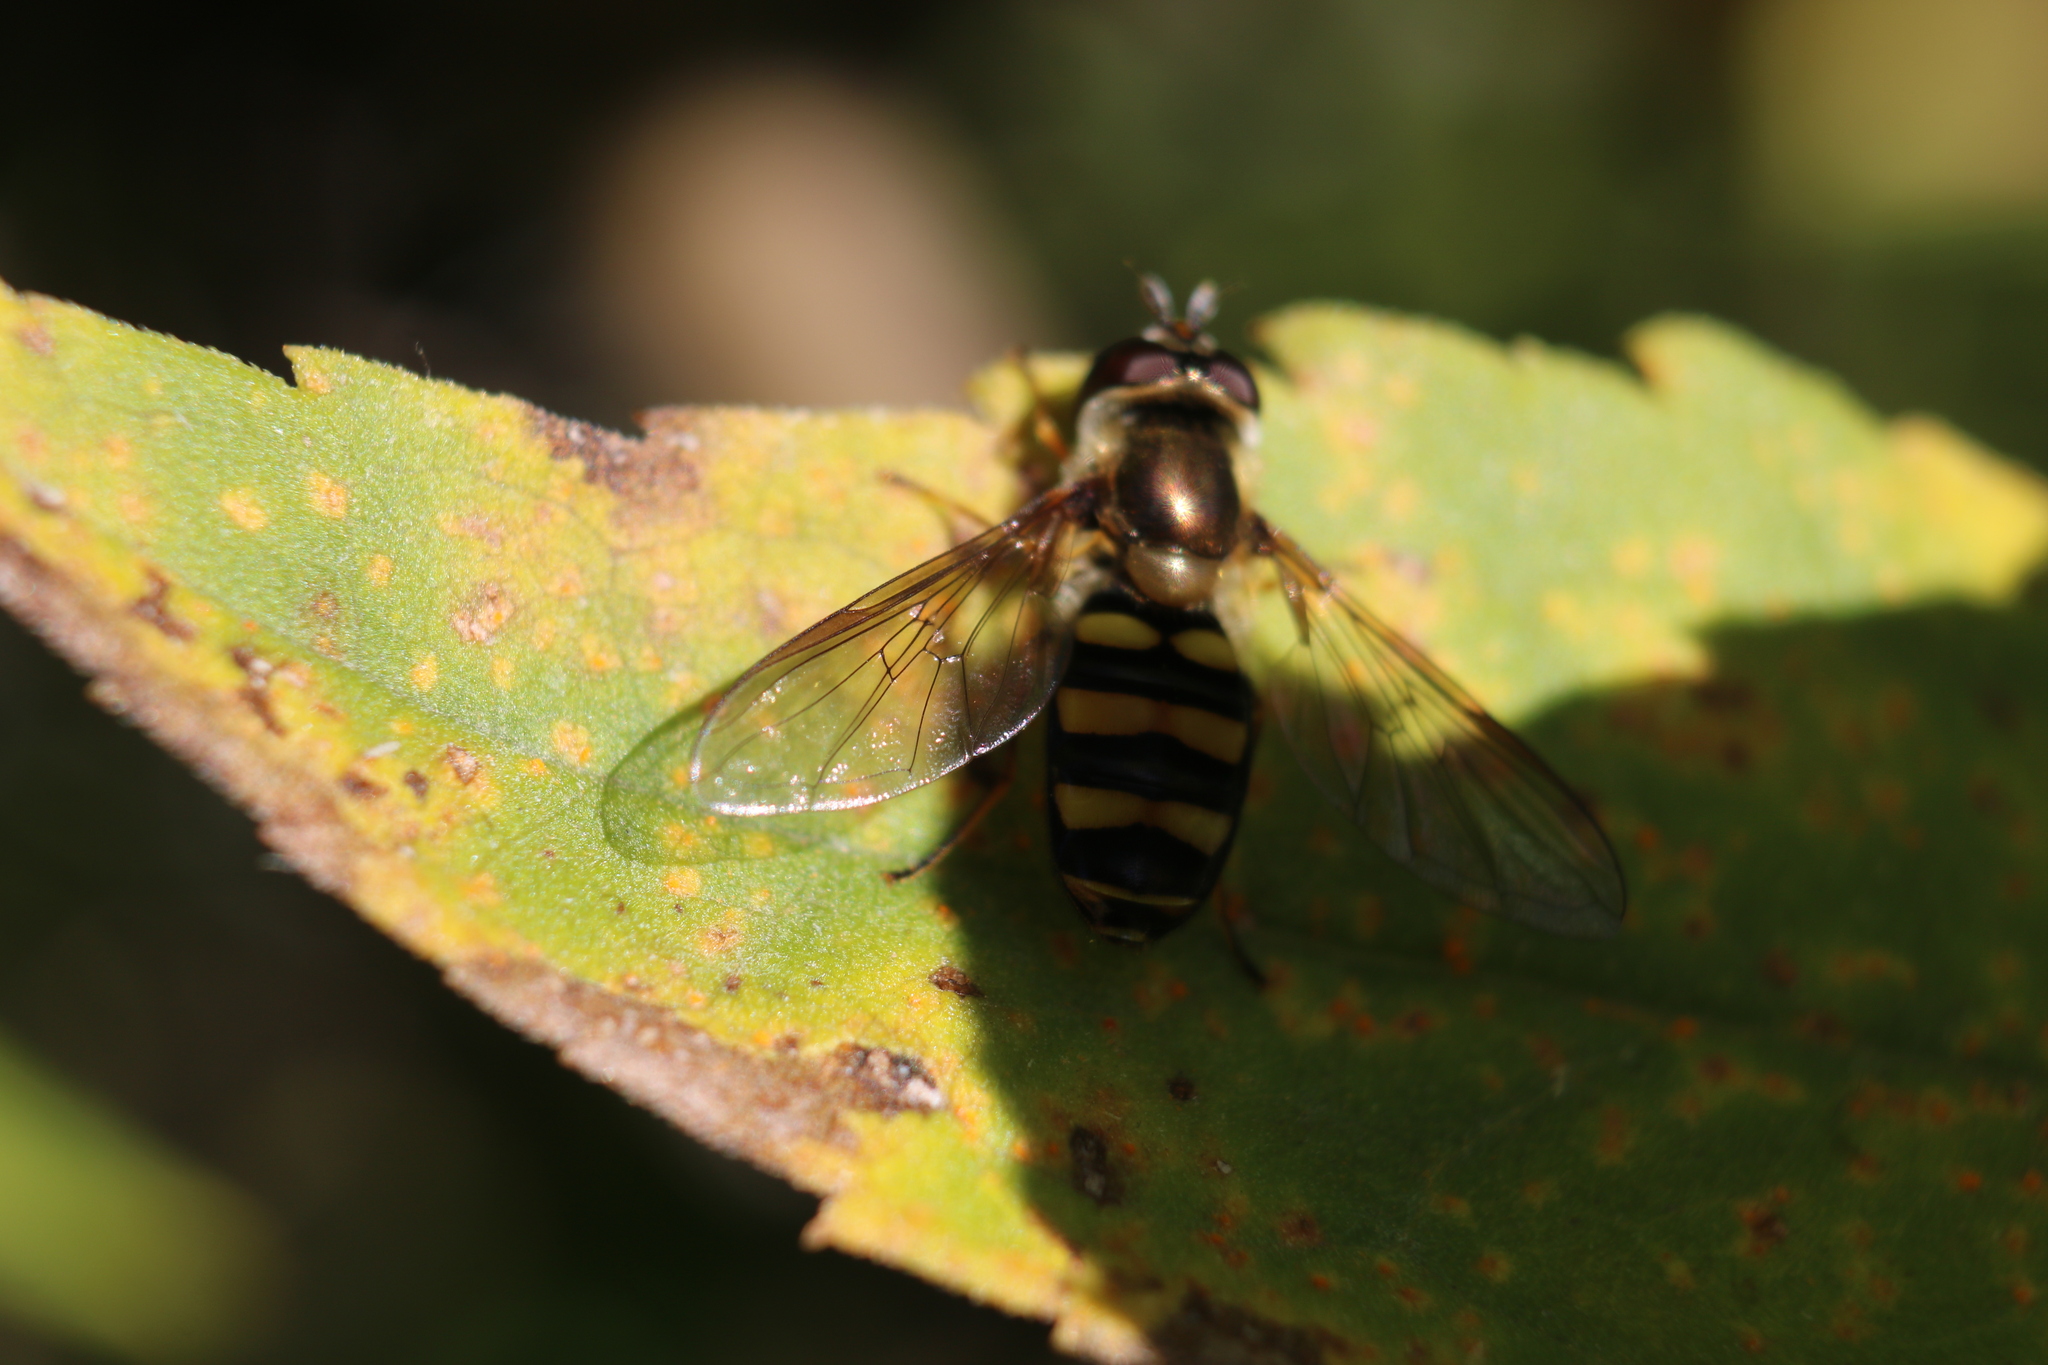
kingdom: Animalia
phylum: Arthropoda
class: Insecta
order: Diptera
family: Syrphidae
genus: Eupeodes
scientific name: Eupeodes
